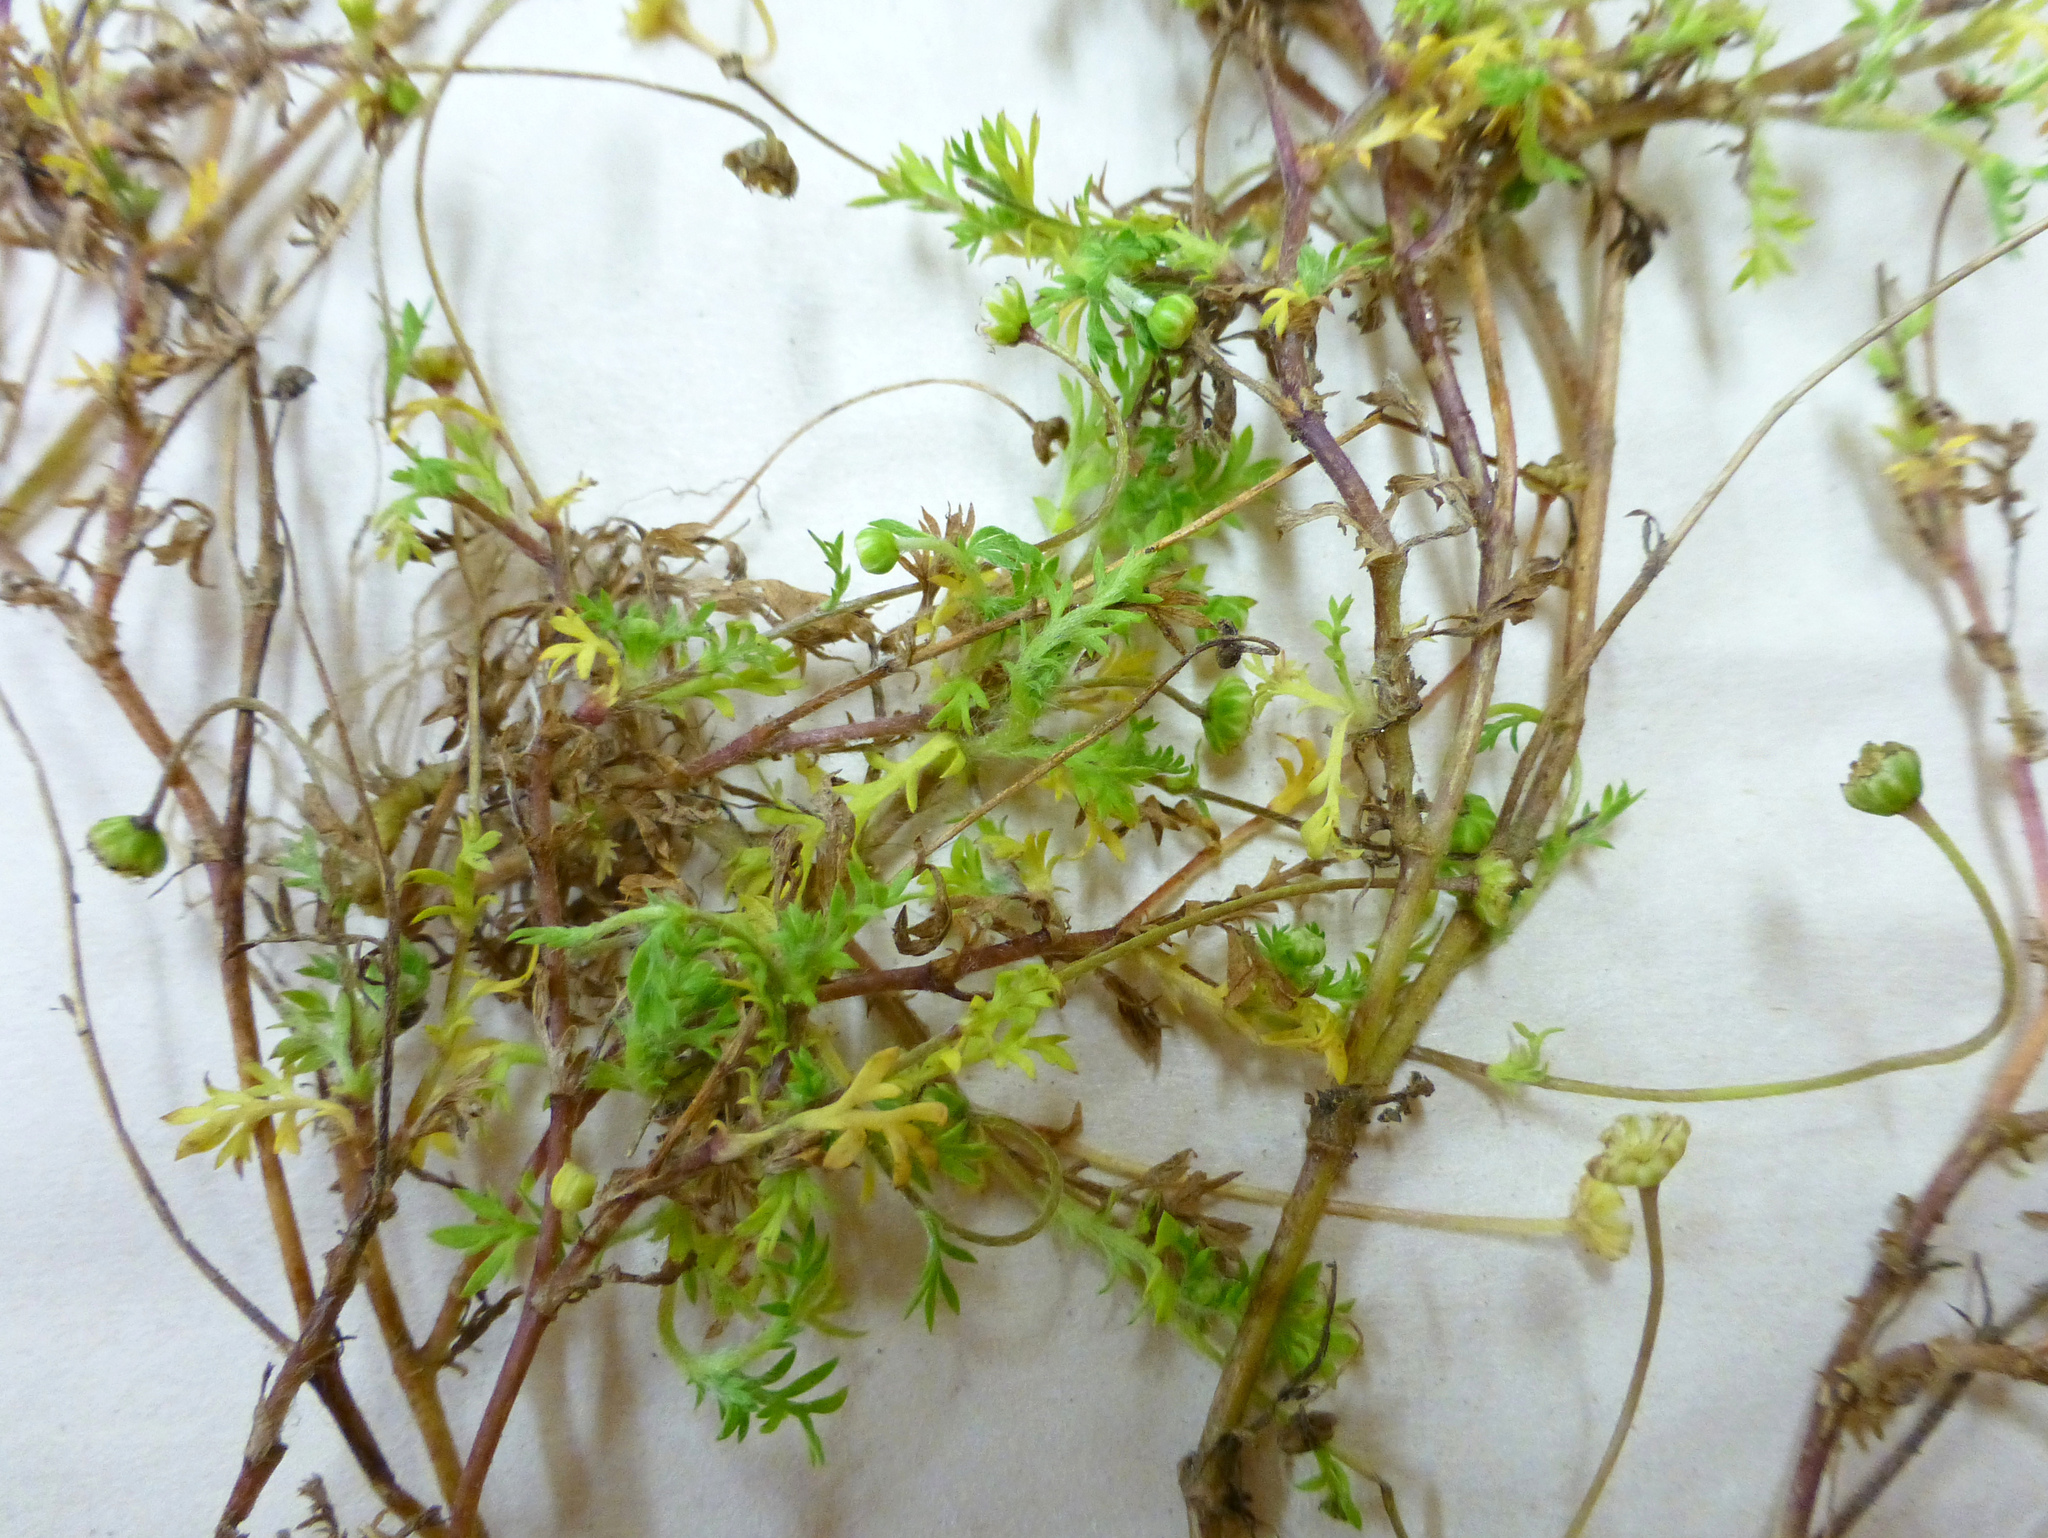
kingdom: Plantae
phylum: Tracheophyta
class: Magnoliopsida
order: Asterales
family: Asteraceae
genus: Cotula
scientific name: Cotula australis
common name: Australian waterbuttons
